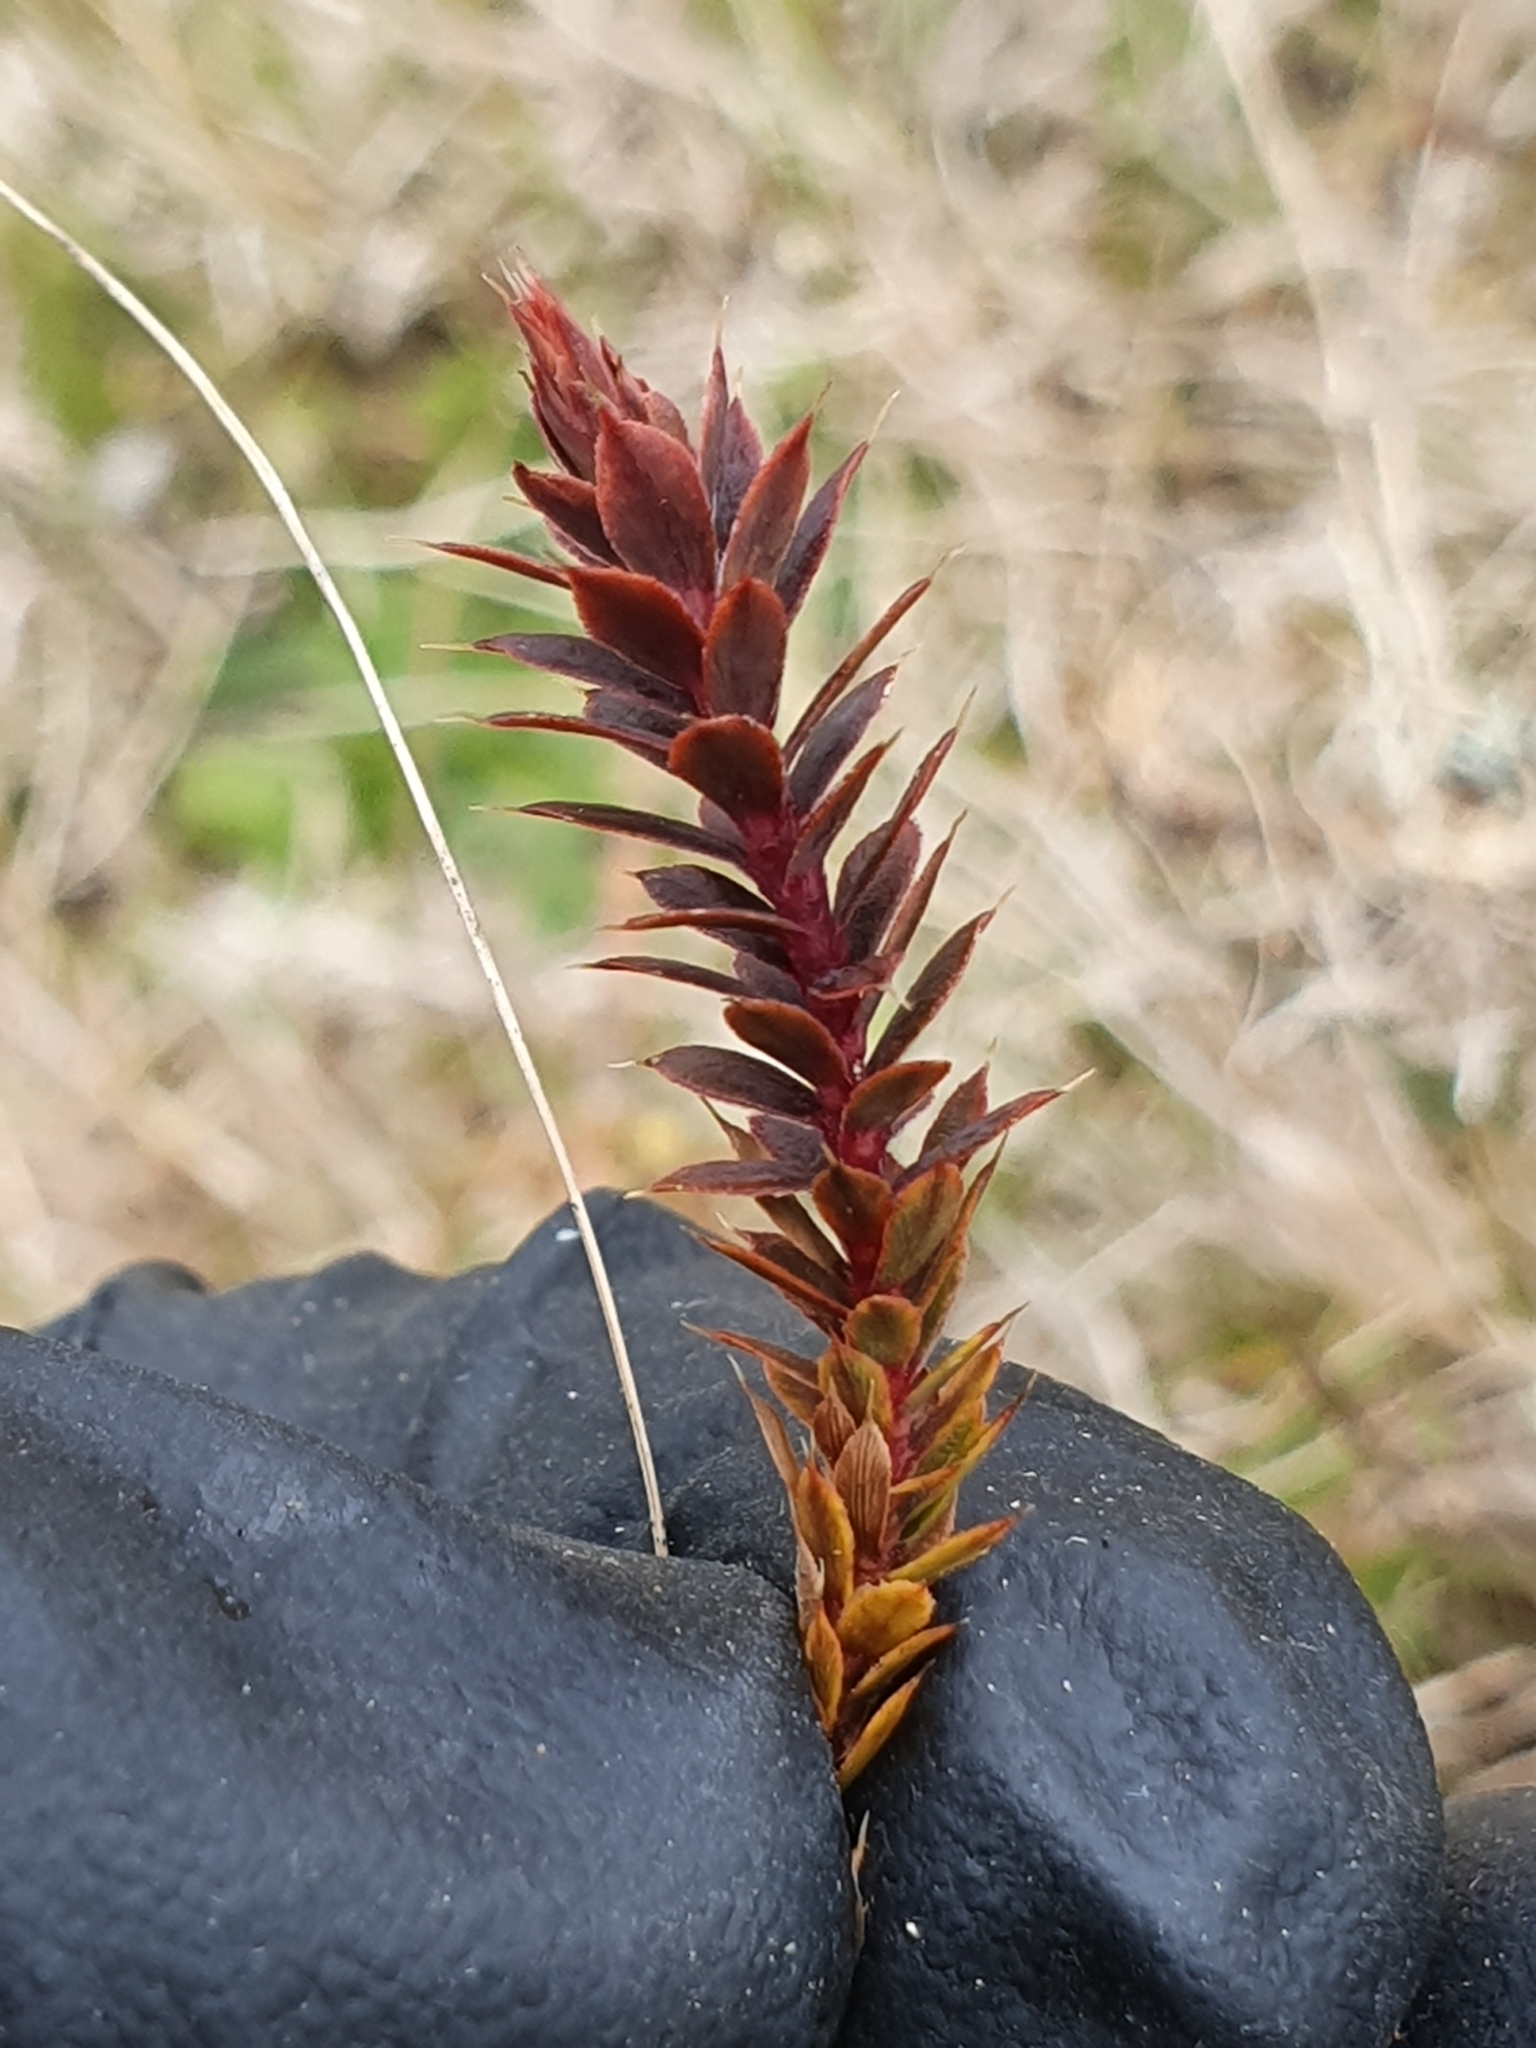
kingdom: Plantae
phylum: Tracheophyta
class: Magnoliopsida
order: Ericales
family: Ericaceae
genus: Styphelia
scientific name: Styphelia nesophila
